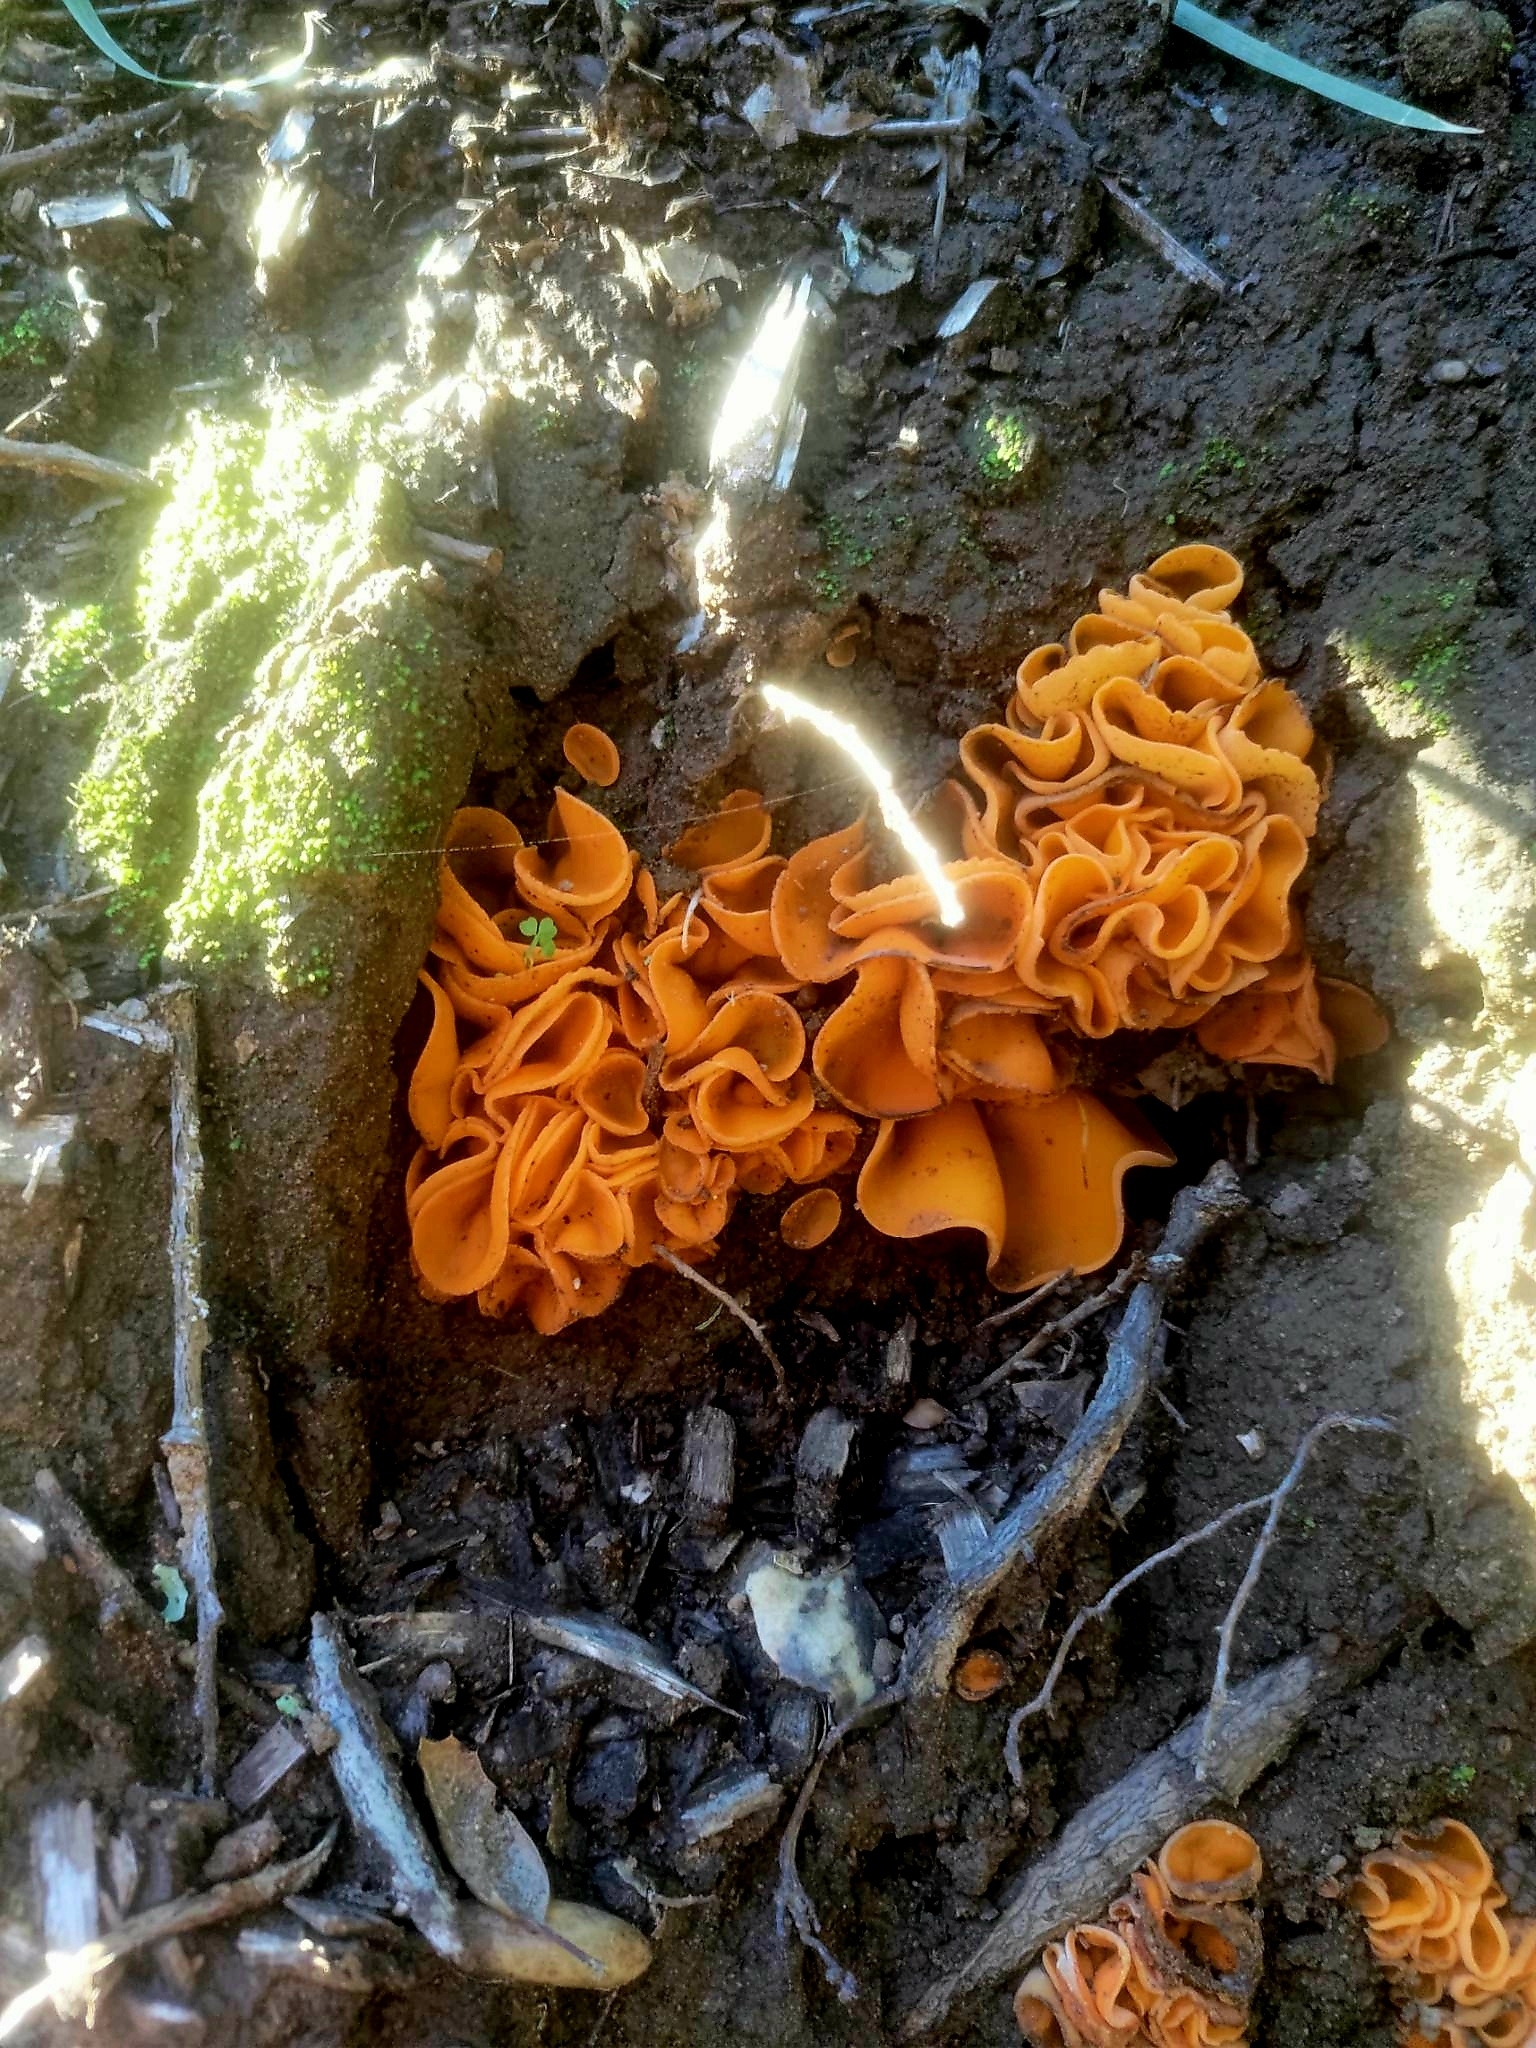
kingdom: Fungi
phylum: Ascomycota
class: Pezizomycetes
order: Pezizales
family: Pyronemataceae
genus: Aleuria
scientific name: Aleuria aurantia
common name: Orange peel fungus
